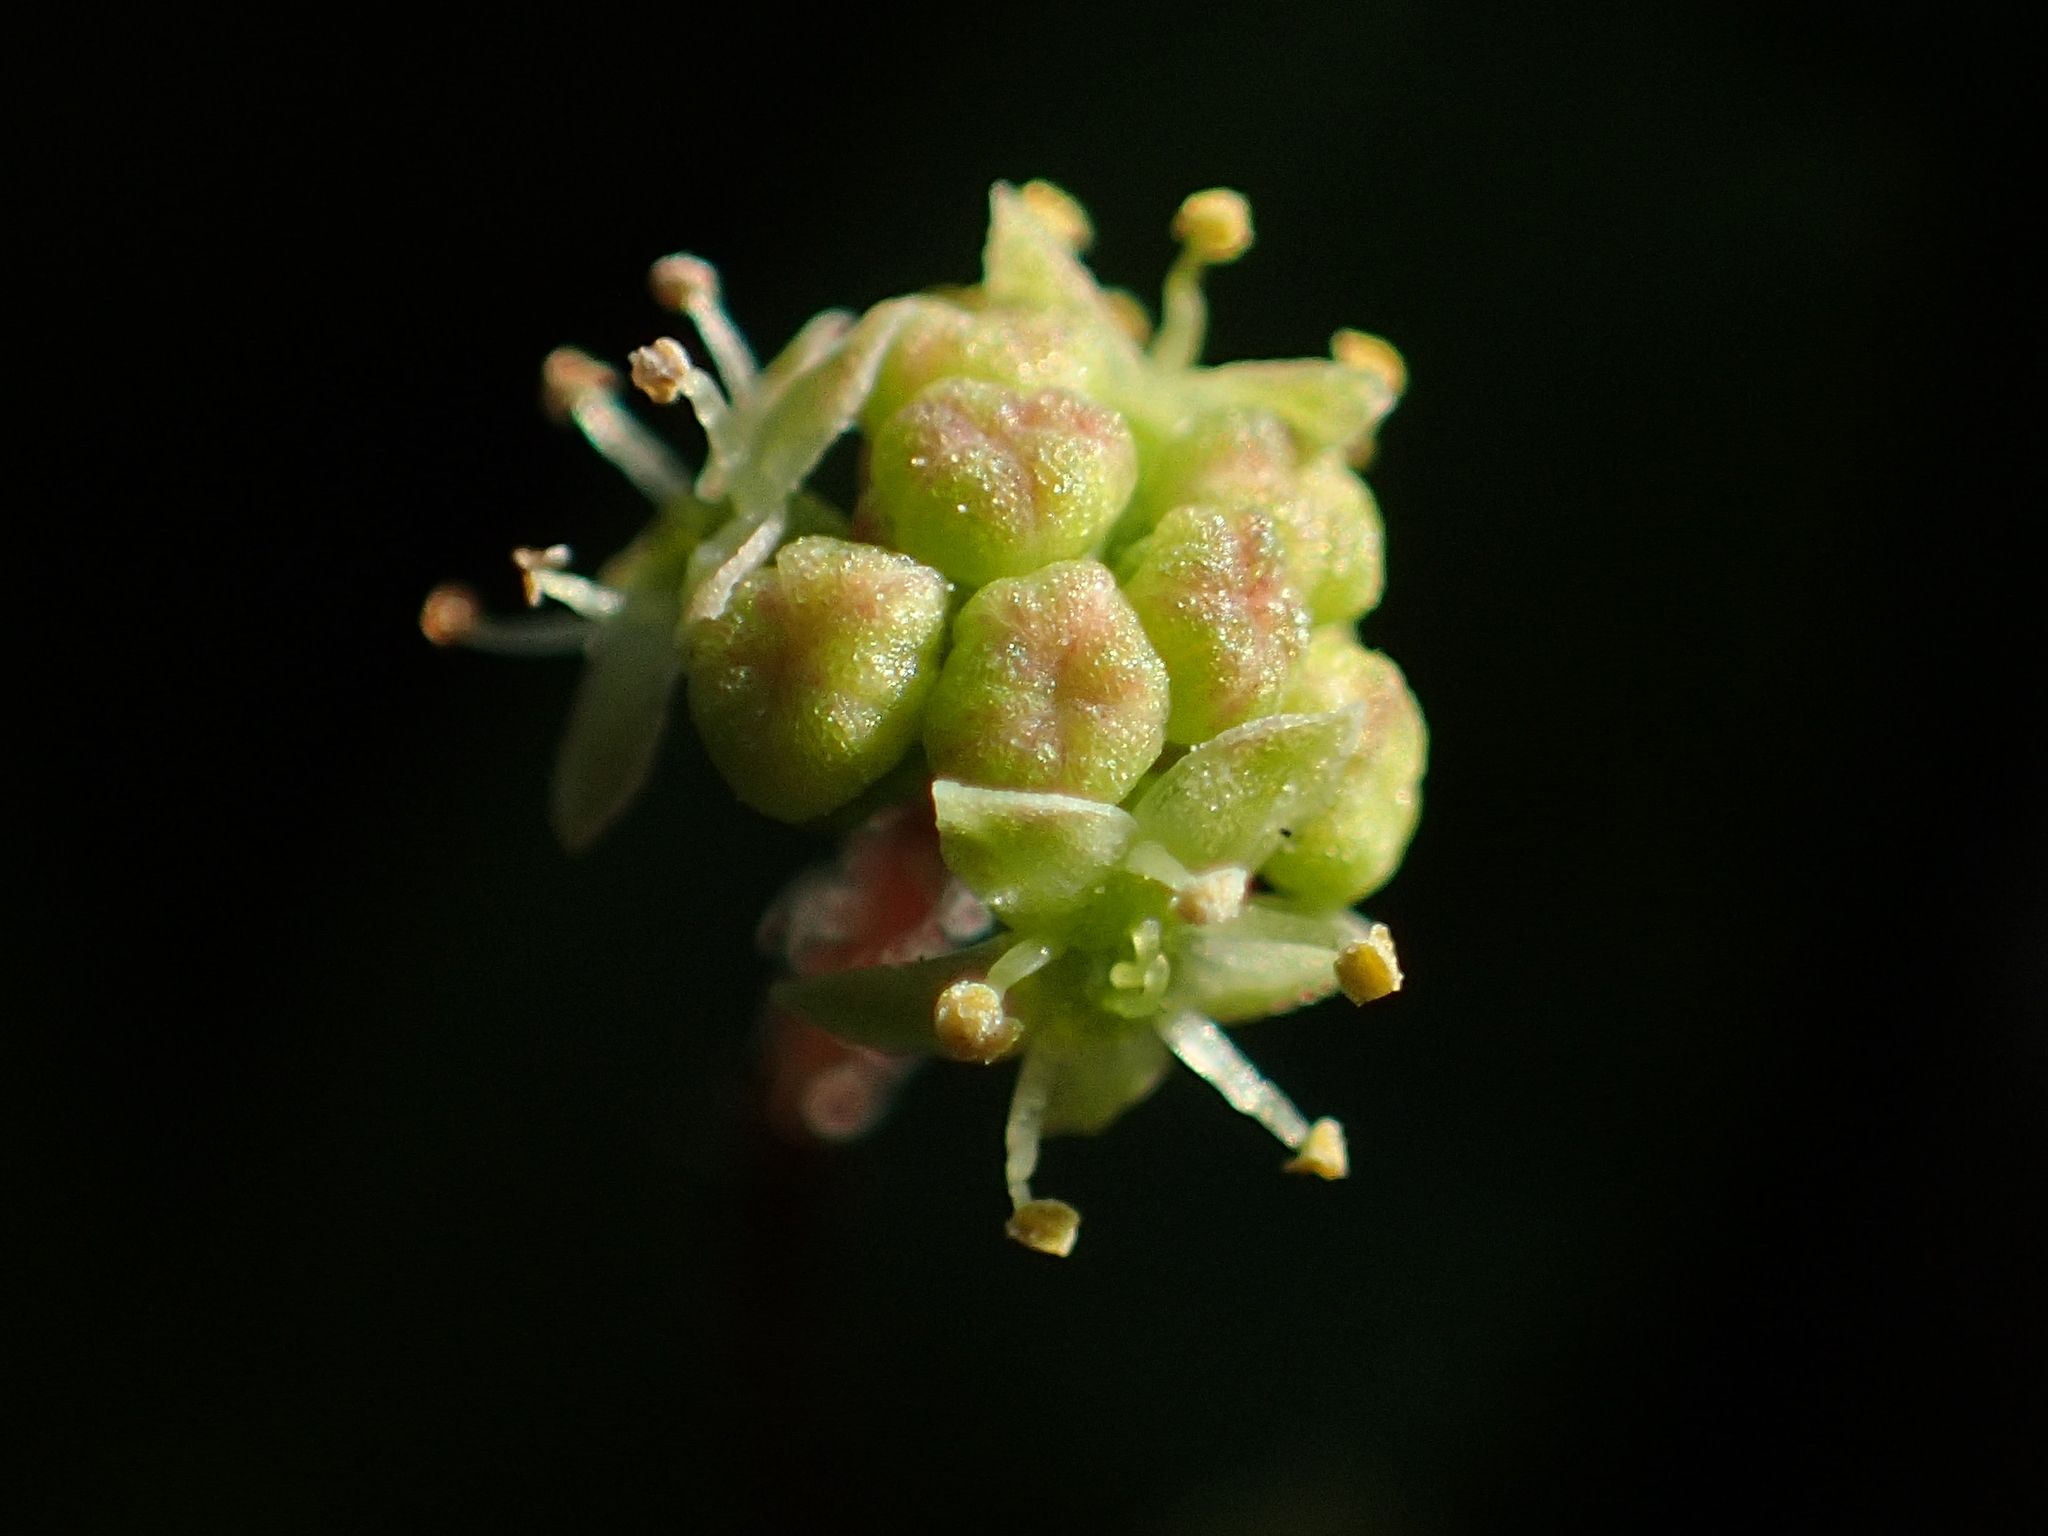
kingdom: Plantae
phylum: Tracheophyta
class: Magnoliopsida
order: Apiales
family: Araliaceae
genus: Hydrocotyle
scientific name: Hydrocotyle batrachium
